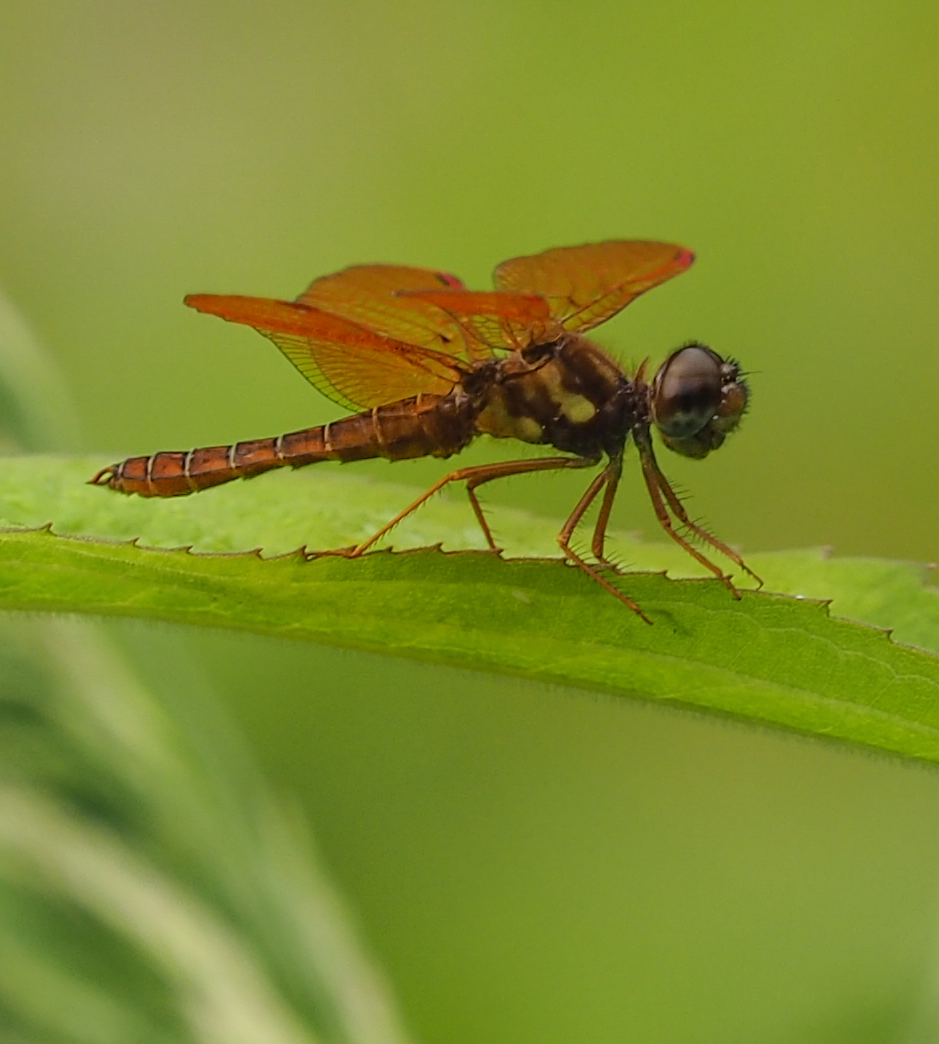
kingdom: Animalia
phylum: Arthropoda
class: Insecta
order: Odonata
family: Libellulidae
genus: Perithemis
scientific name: Perithemis tenera
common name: Eastern amberwing
